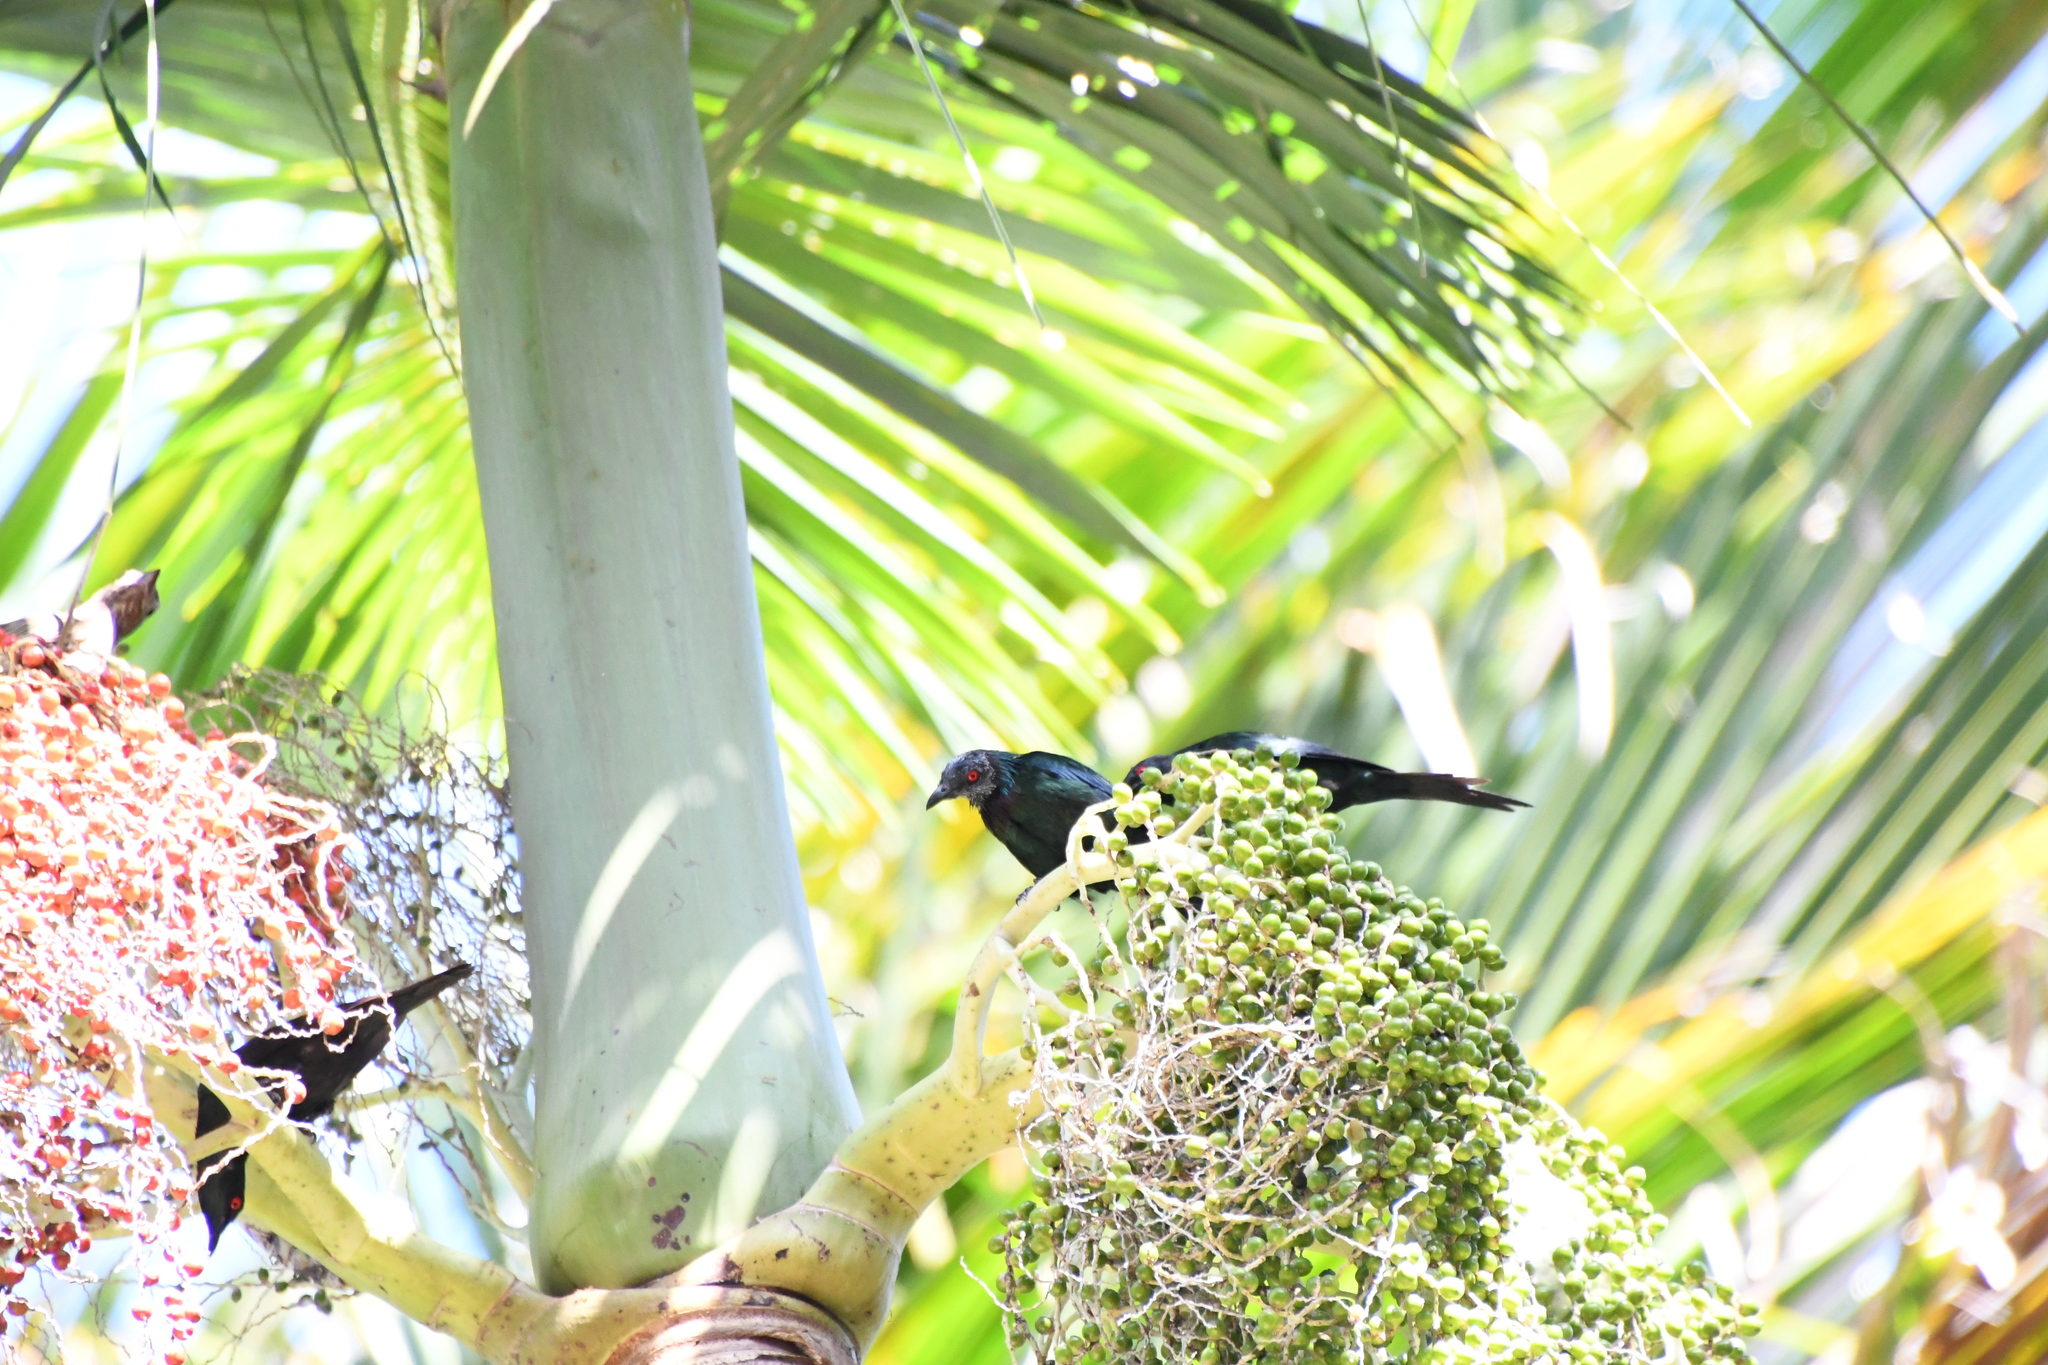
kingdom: Animalia
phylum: Chordata
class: Aves
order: Passeriformes
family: Sturnidae
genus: Aplonis
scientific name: Aplonis metallica
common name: Metallic starling
